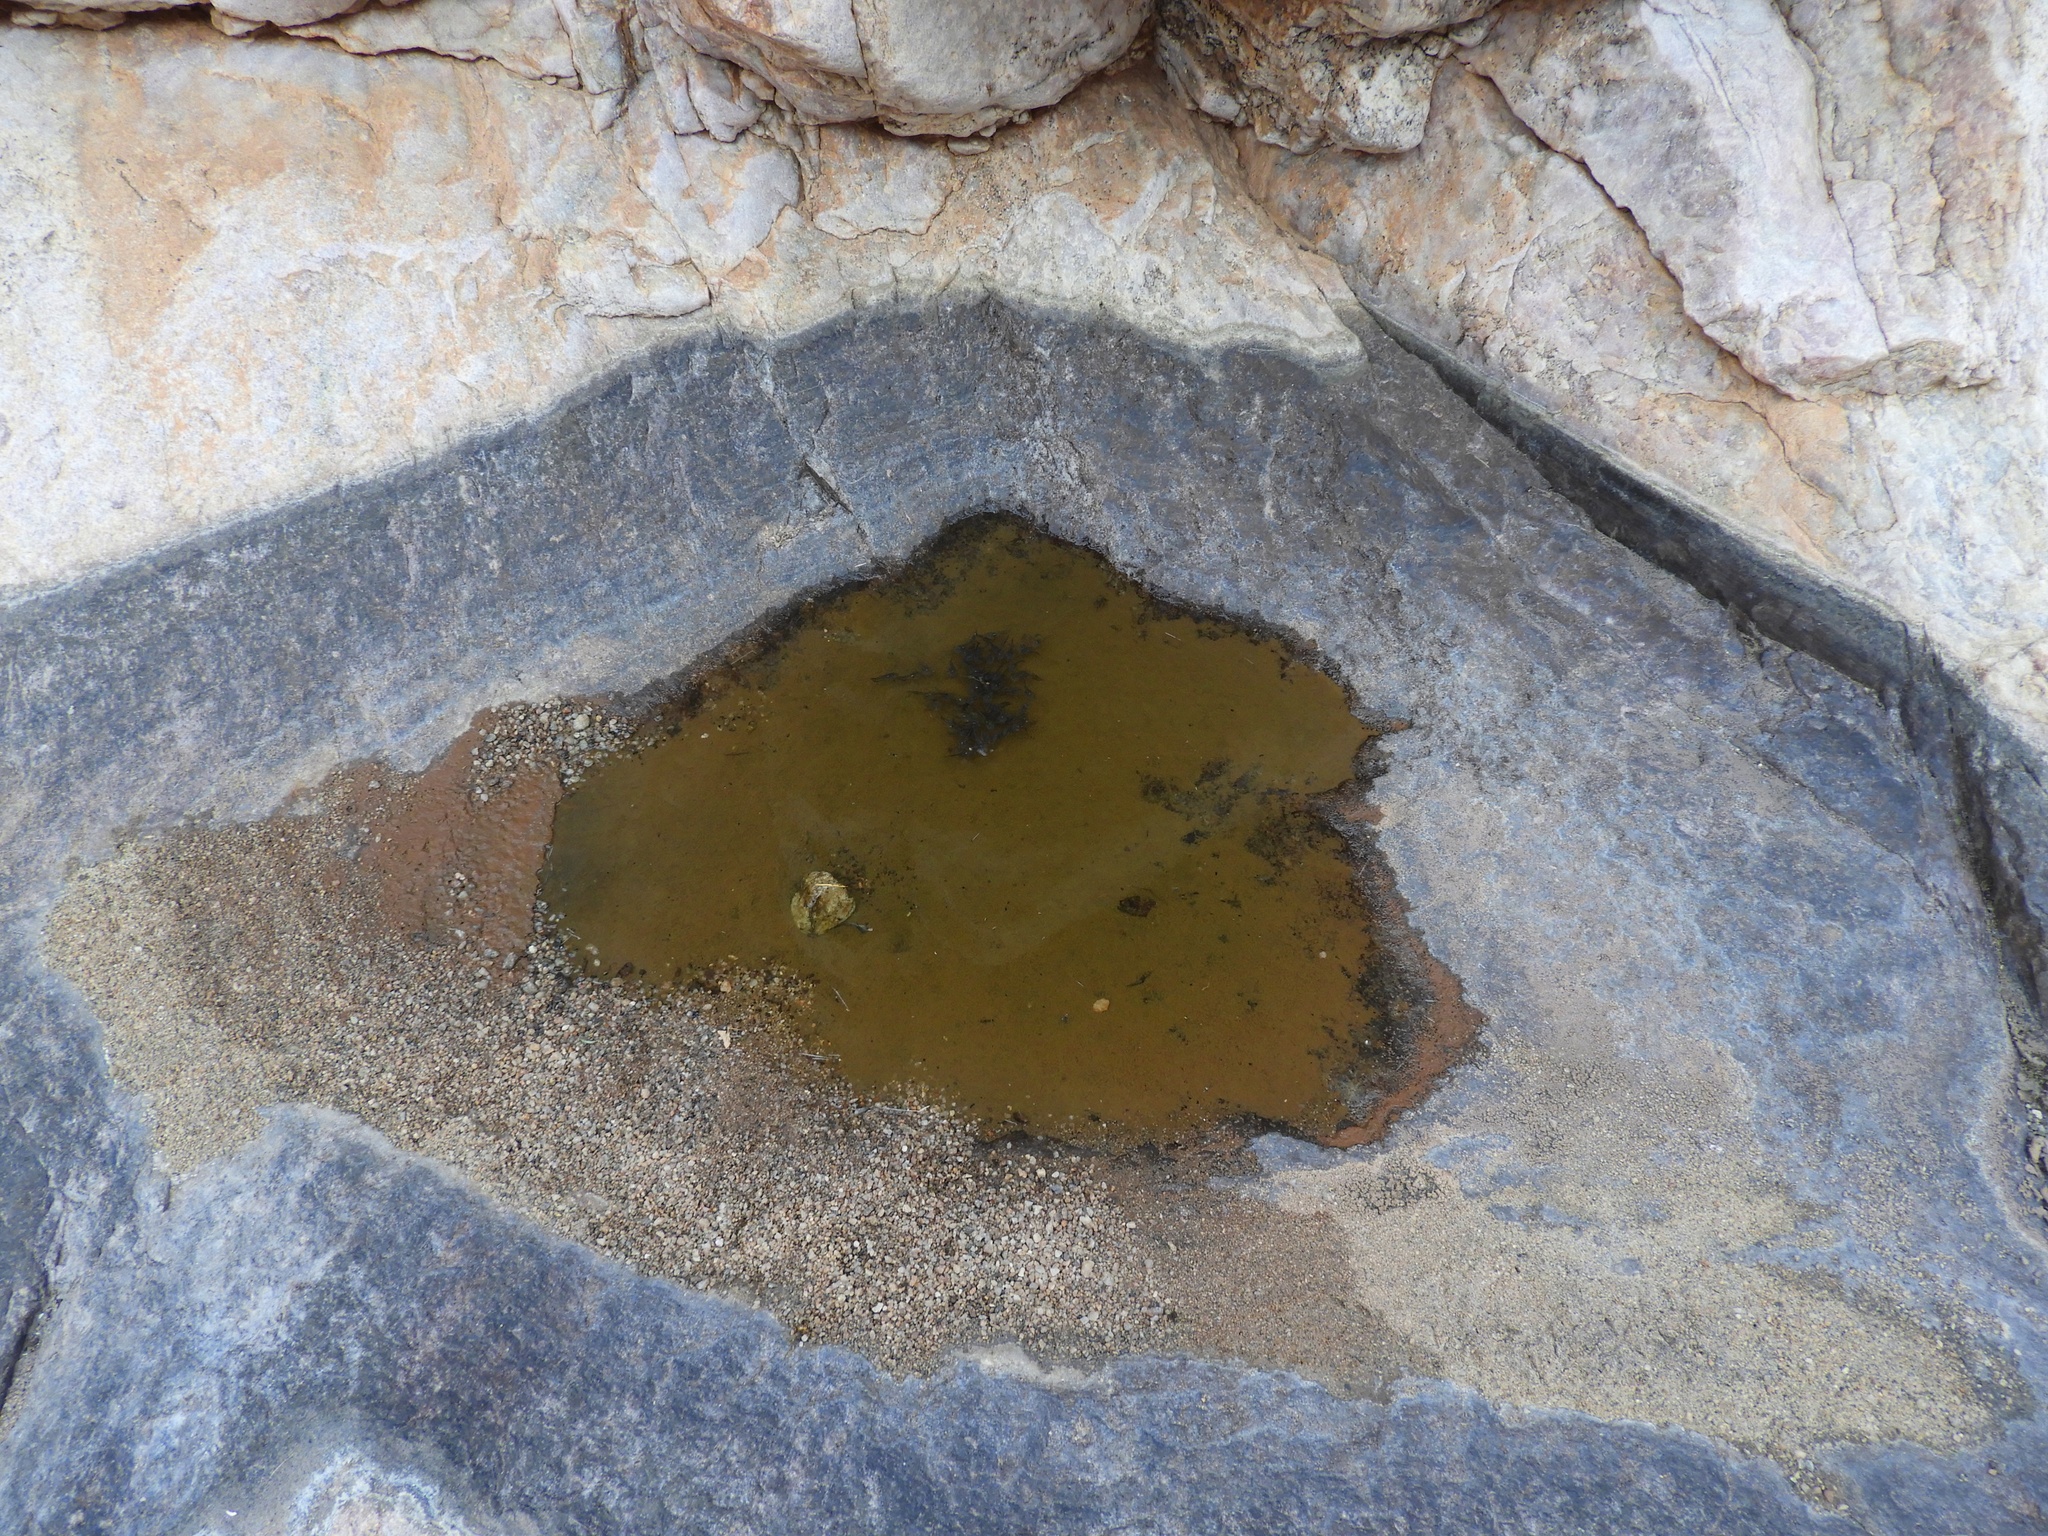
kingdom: Animalia
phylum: Chordata
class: Amphibia
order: Anura
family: Microhylidae
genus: Phrynomantis
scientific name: Phrynomantis annectens
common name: Marbled rubber frog
